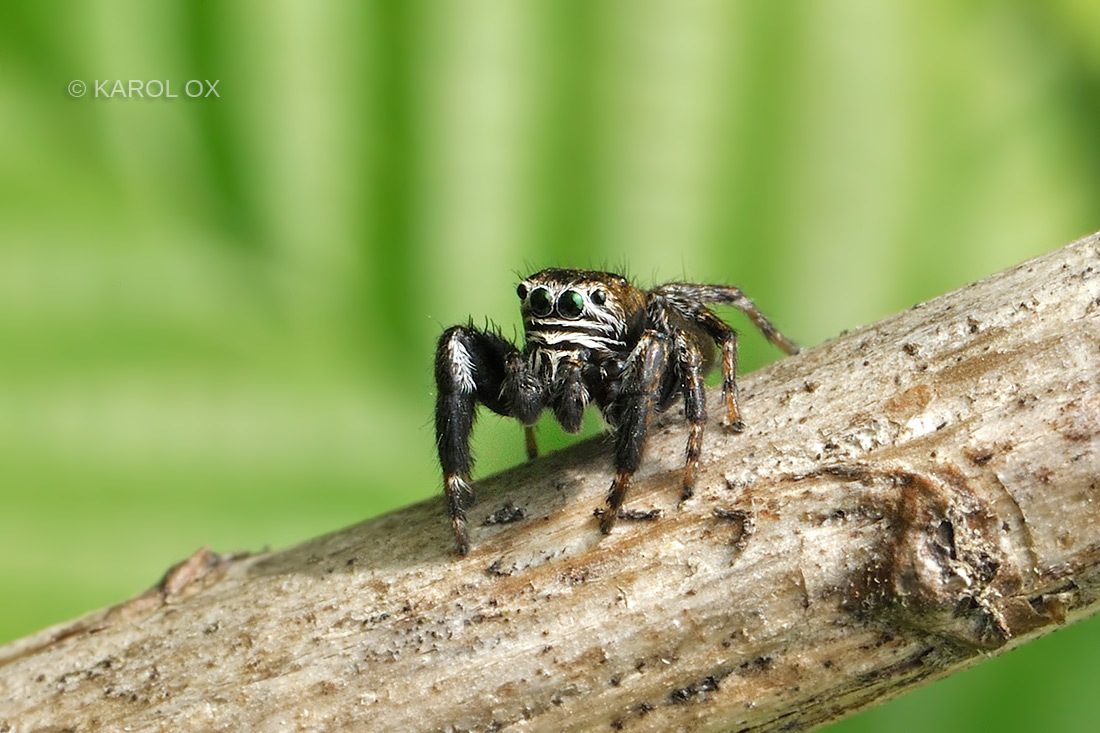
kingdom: Animalia
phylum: Arthropoda
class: Arachnida
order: Araneae
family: Salticidae
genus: Evarcha
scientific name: Evarcha arcuata
